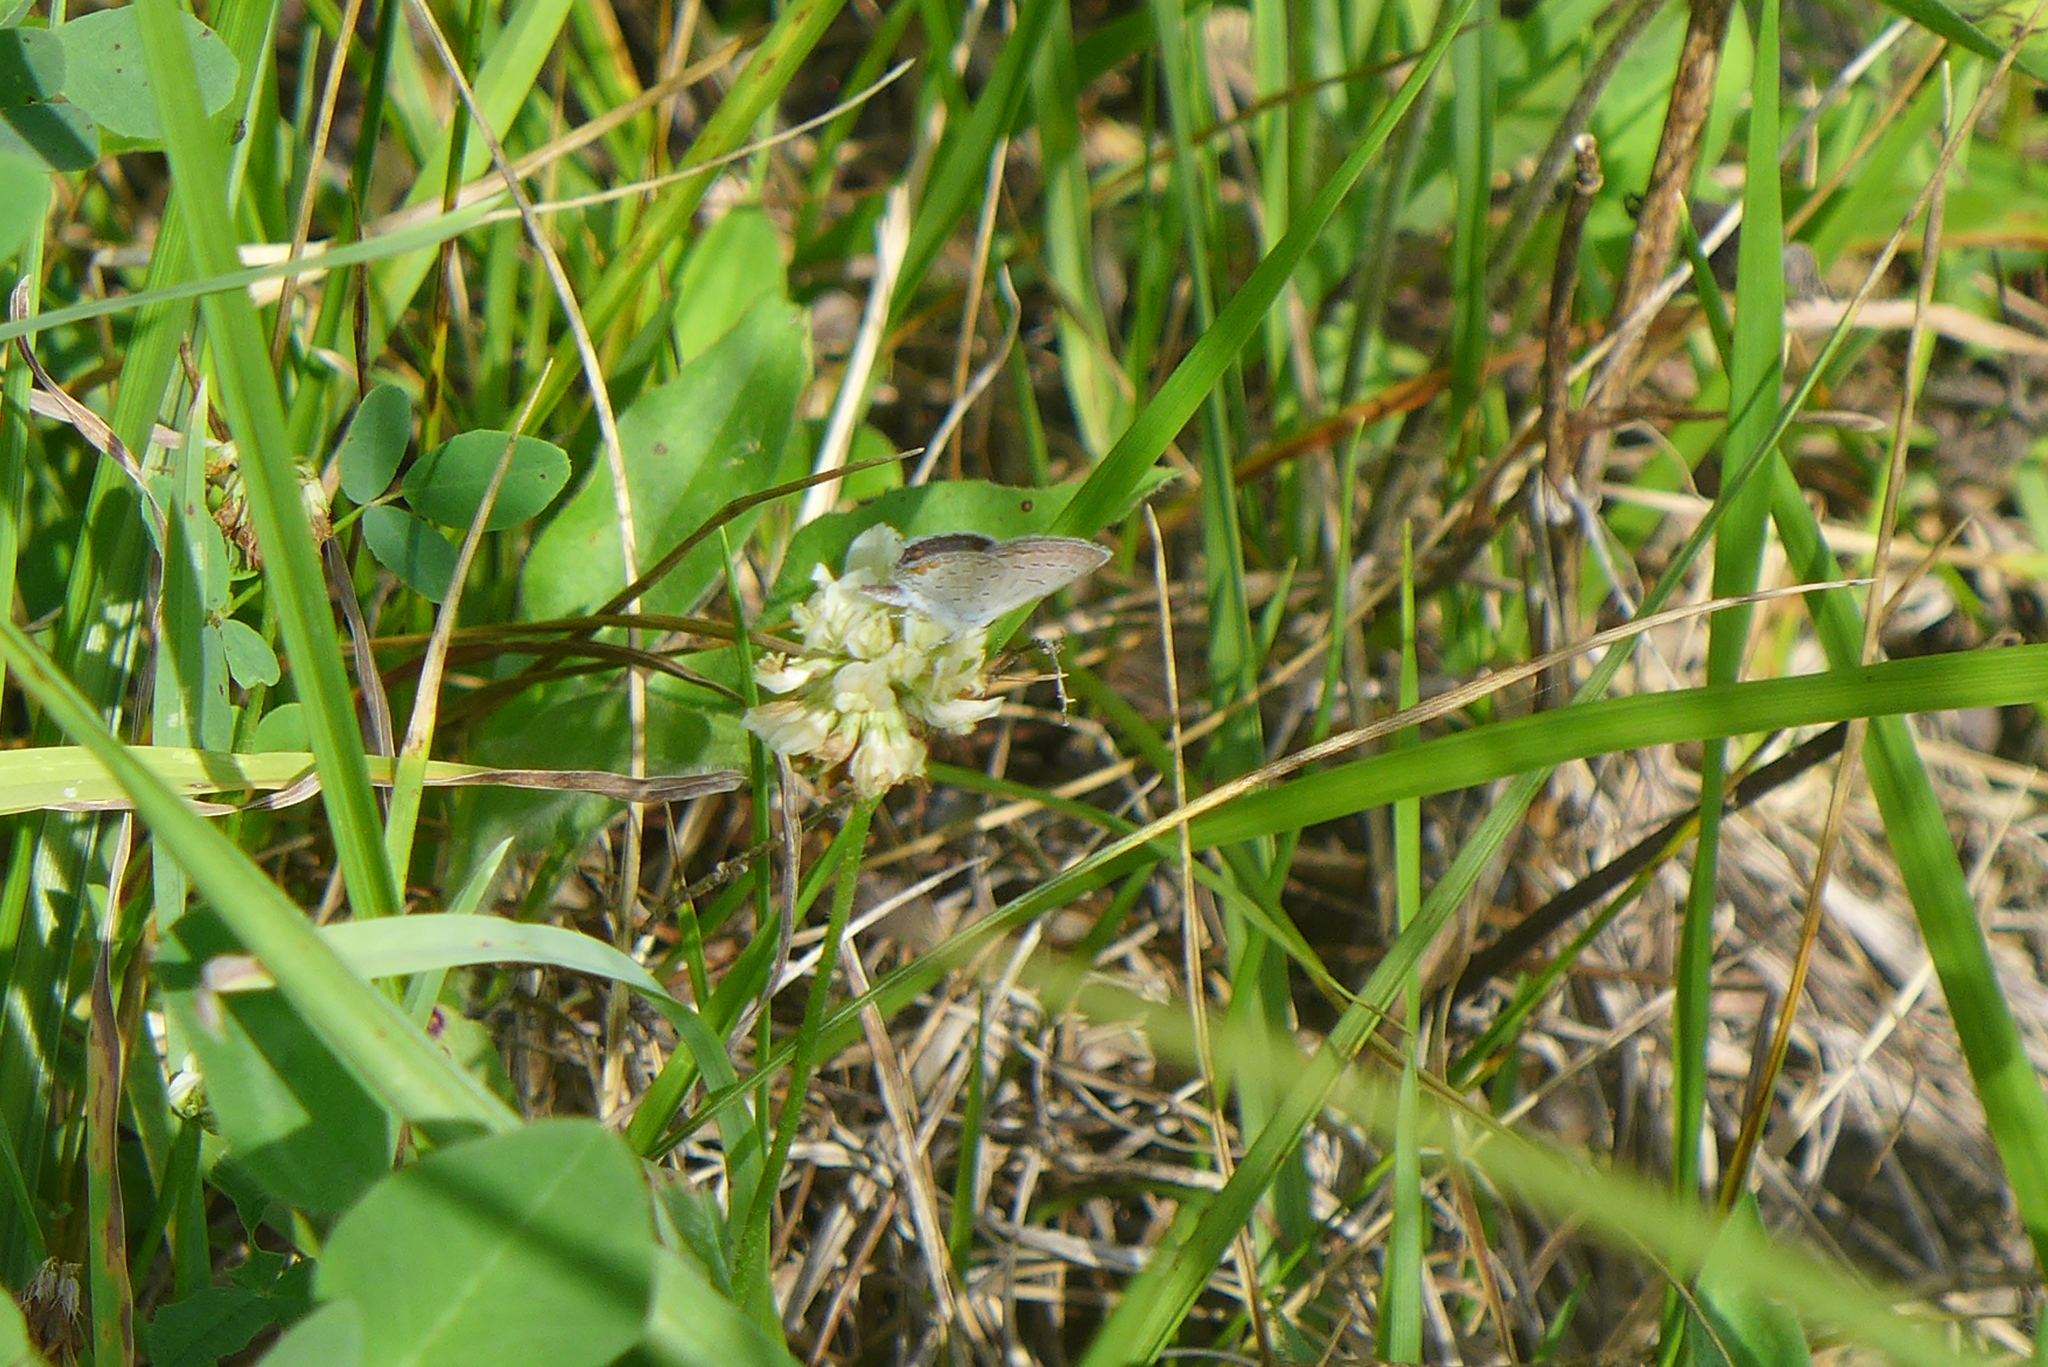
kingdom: Animalia
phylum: Arthropoda
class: Insecta
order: Lepidoptera
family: Lycaenidae
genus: Elkalyce
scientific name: Elkalyce comyntas
